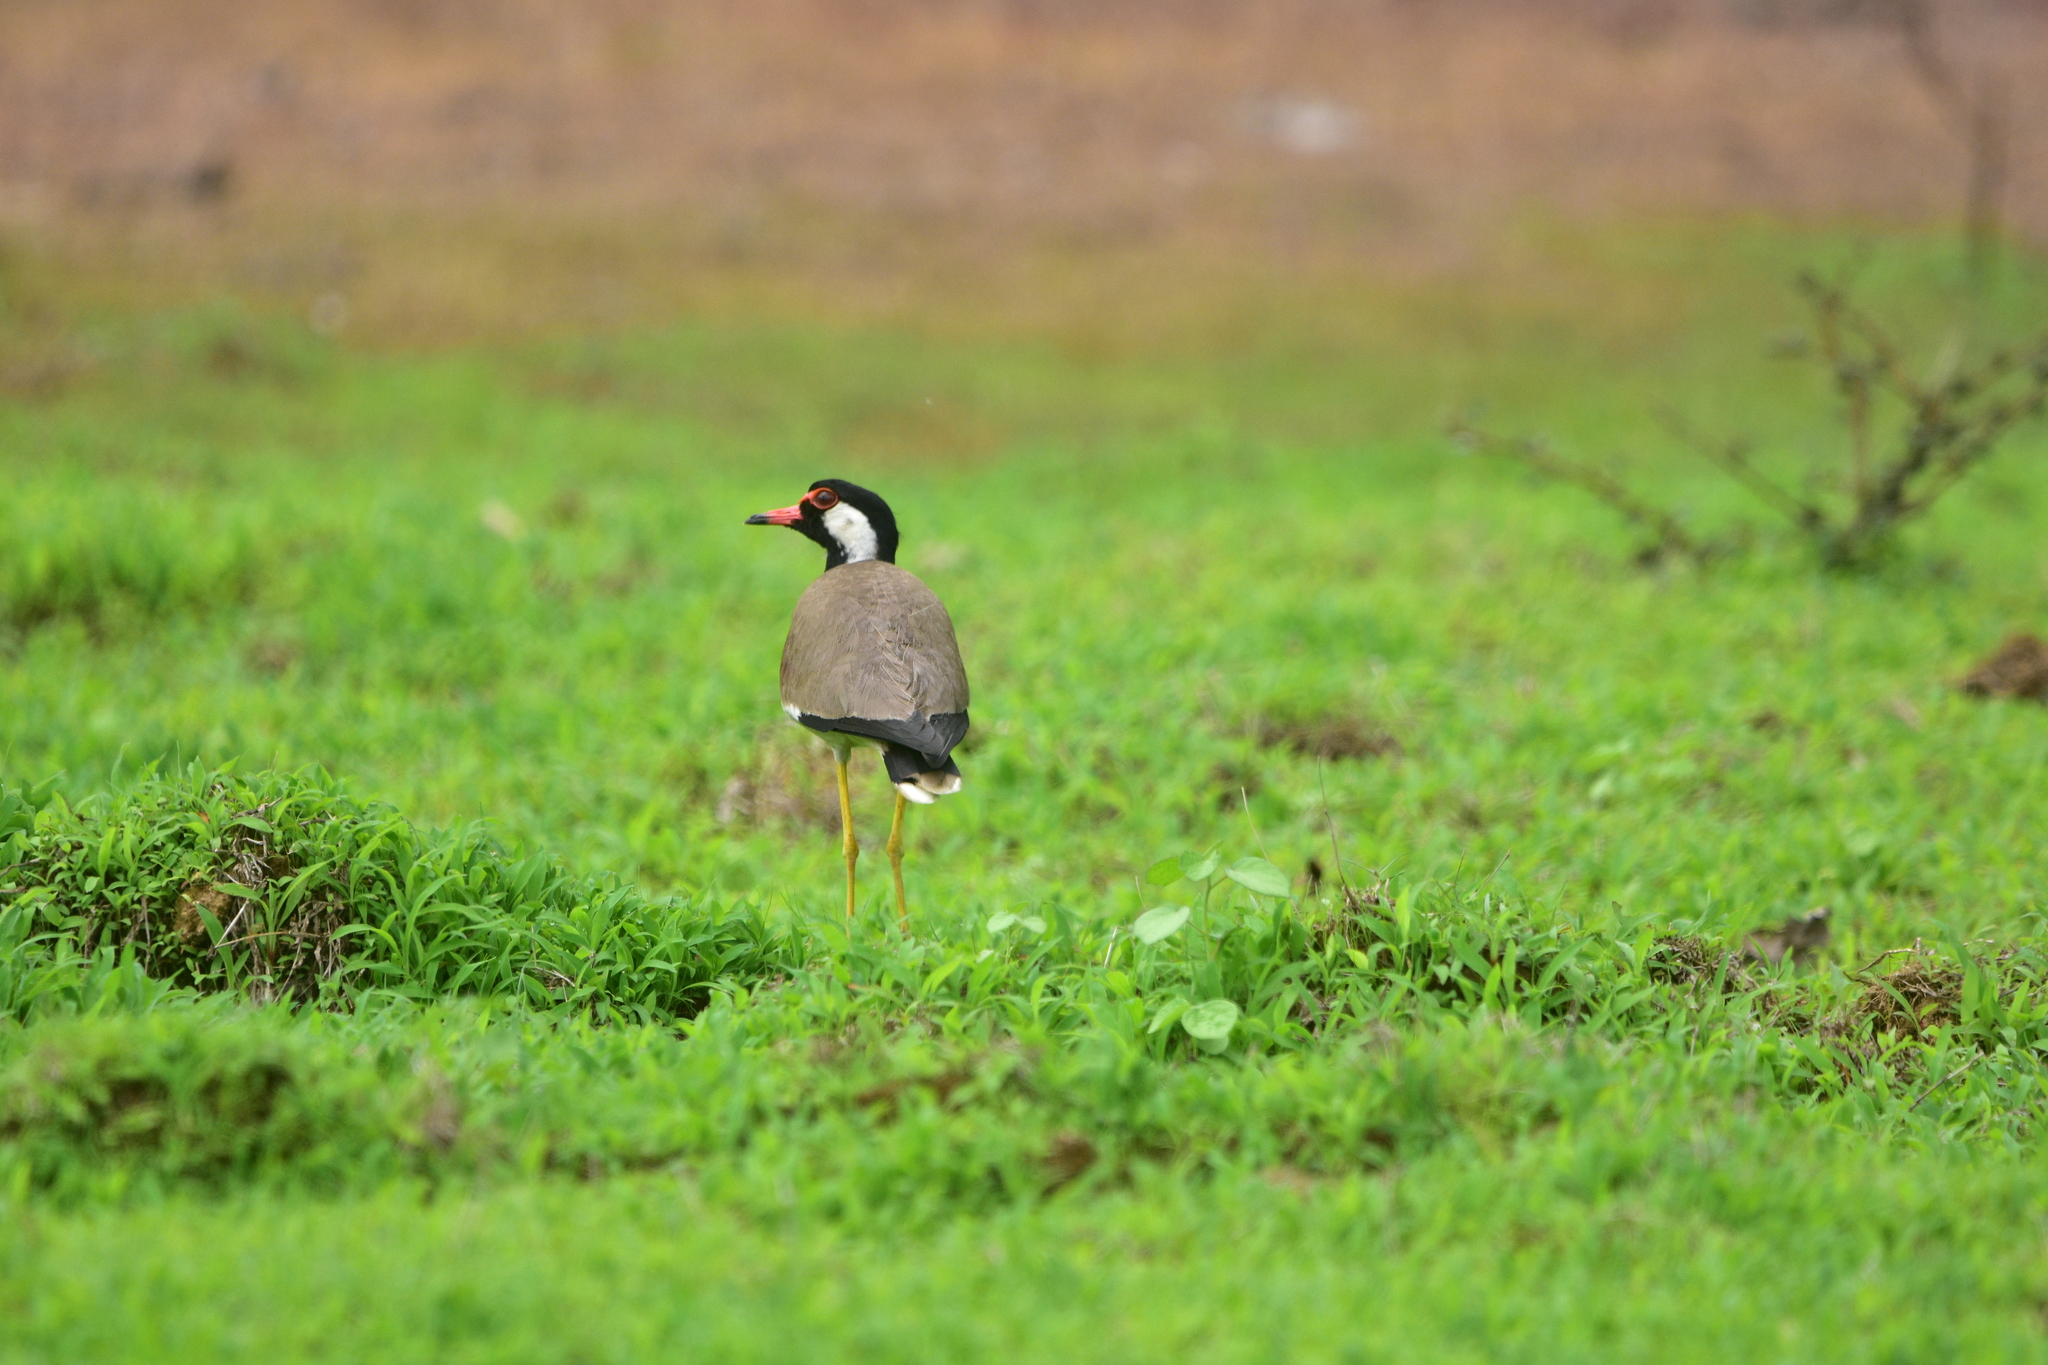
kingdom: Animalia
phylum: Chordata
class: Aves
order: Charadriiformes
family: Charadriidae
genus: Vanellus
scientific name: Vanellus indicus
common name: Red-wattled lapwing
